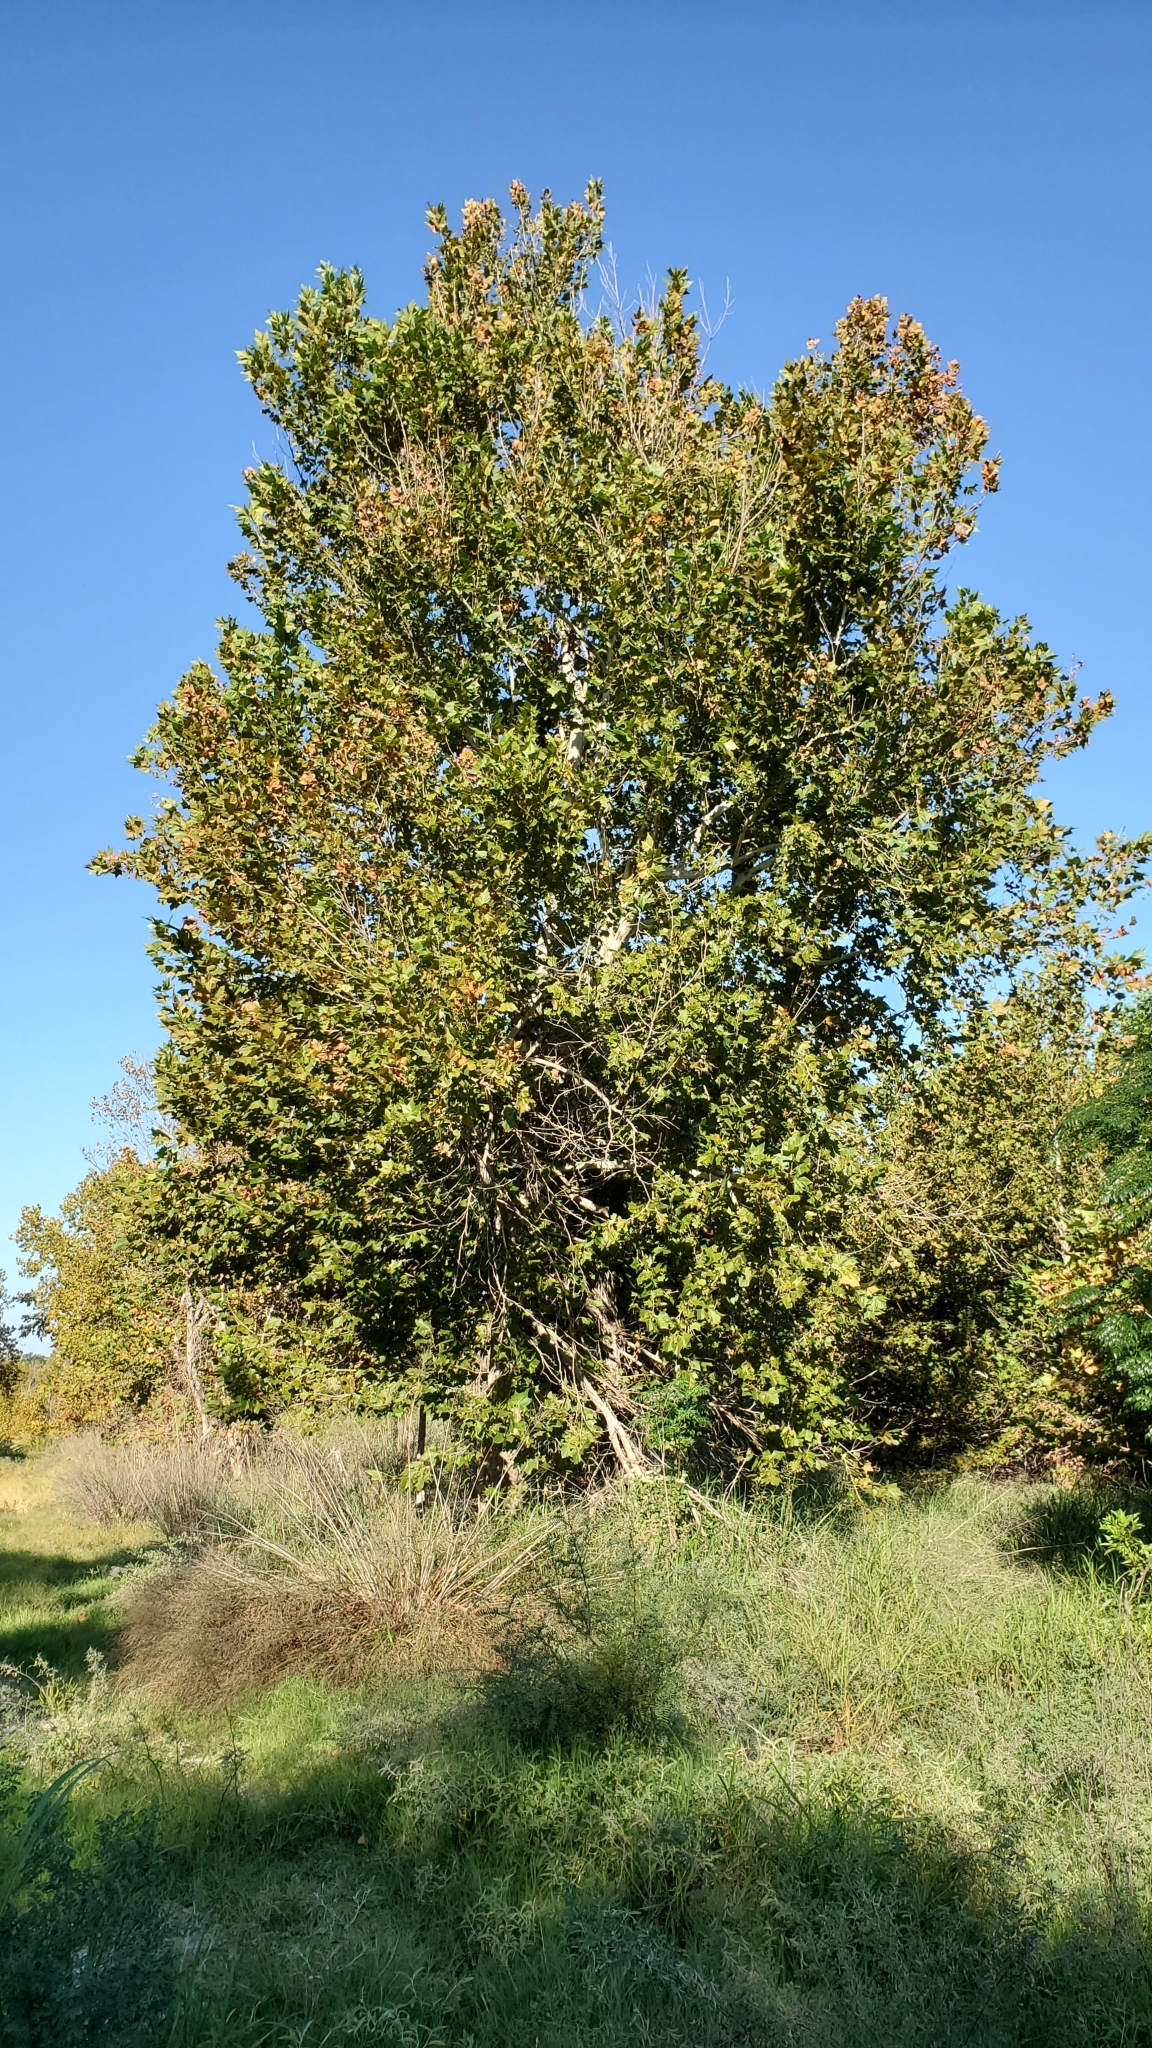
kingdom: Plantae
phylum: Tracheophyta
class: Magnoliopsida
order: Proteales
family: Platanaceae
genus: Platanus
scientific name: Platanus occidentalis
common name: American sycamore
